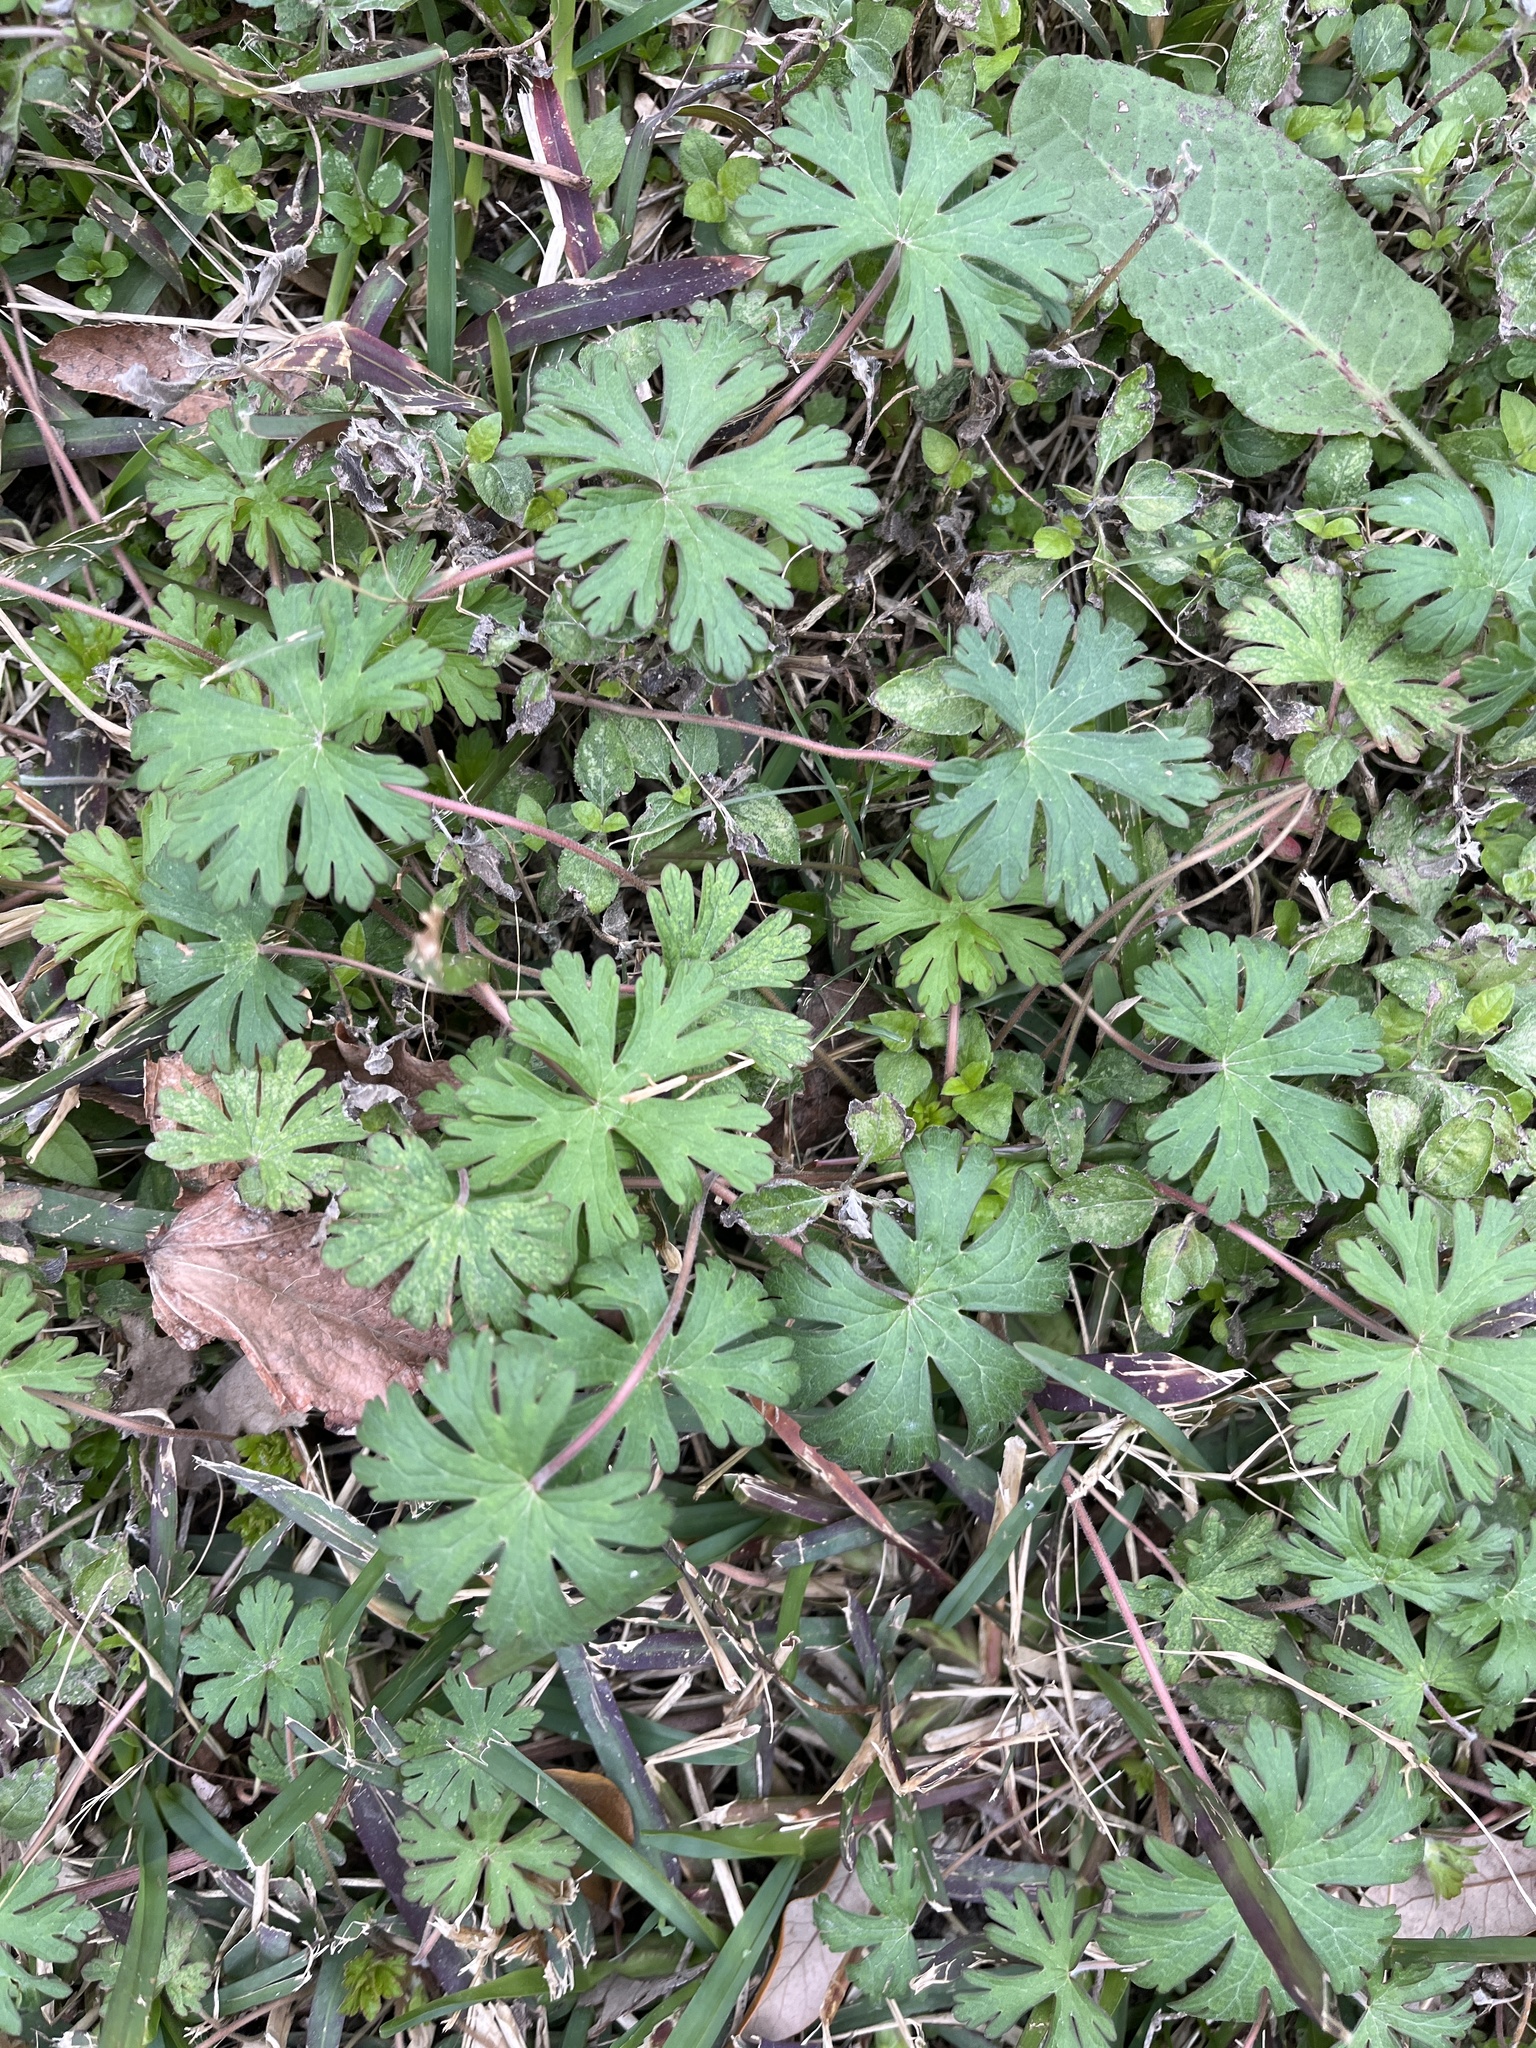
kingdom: Plantae
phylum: Tracheophyta
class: Magnoliopsida
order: Geraniales
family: Geraniaceae
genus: Geranium
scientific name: Geranium carolinianum
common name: Carolina crane's-bill
